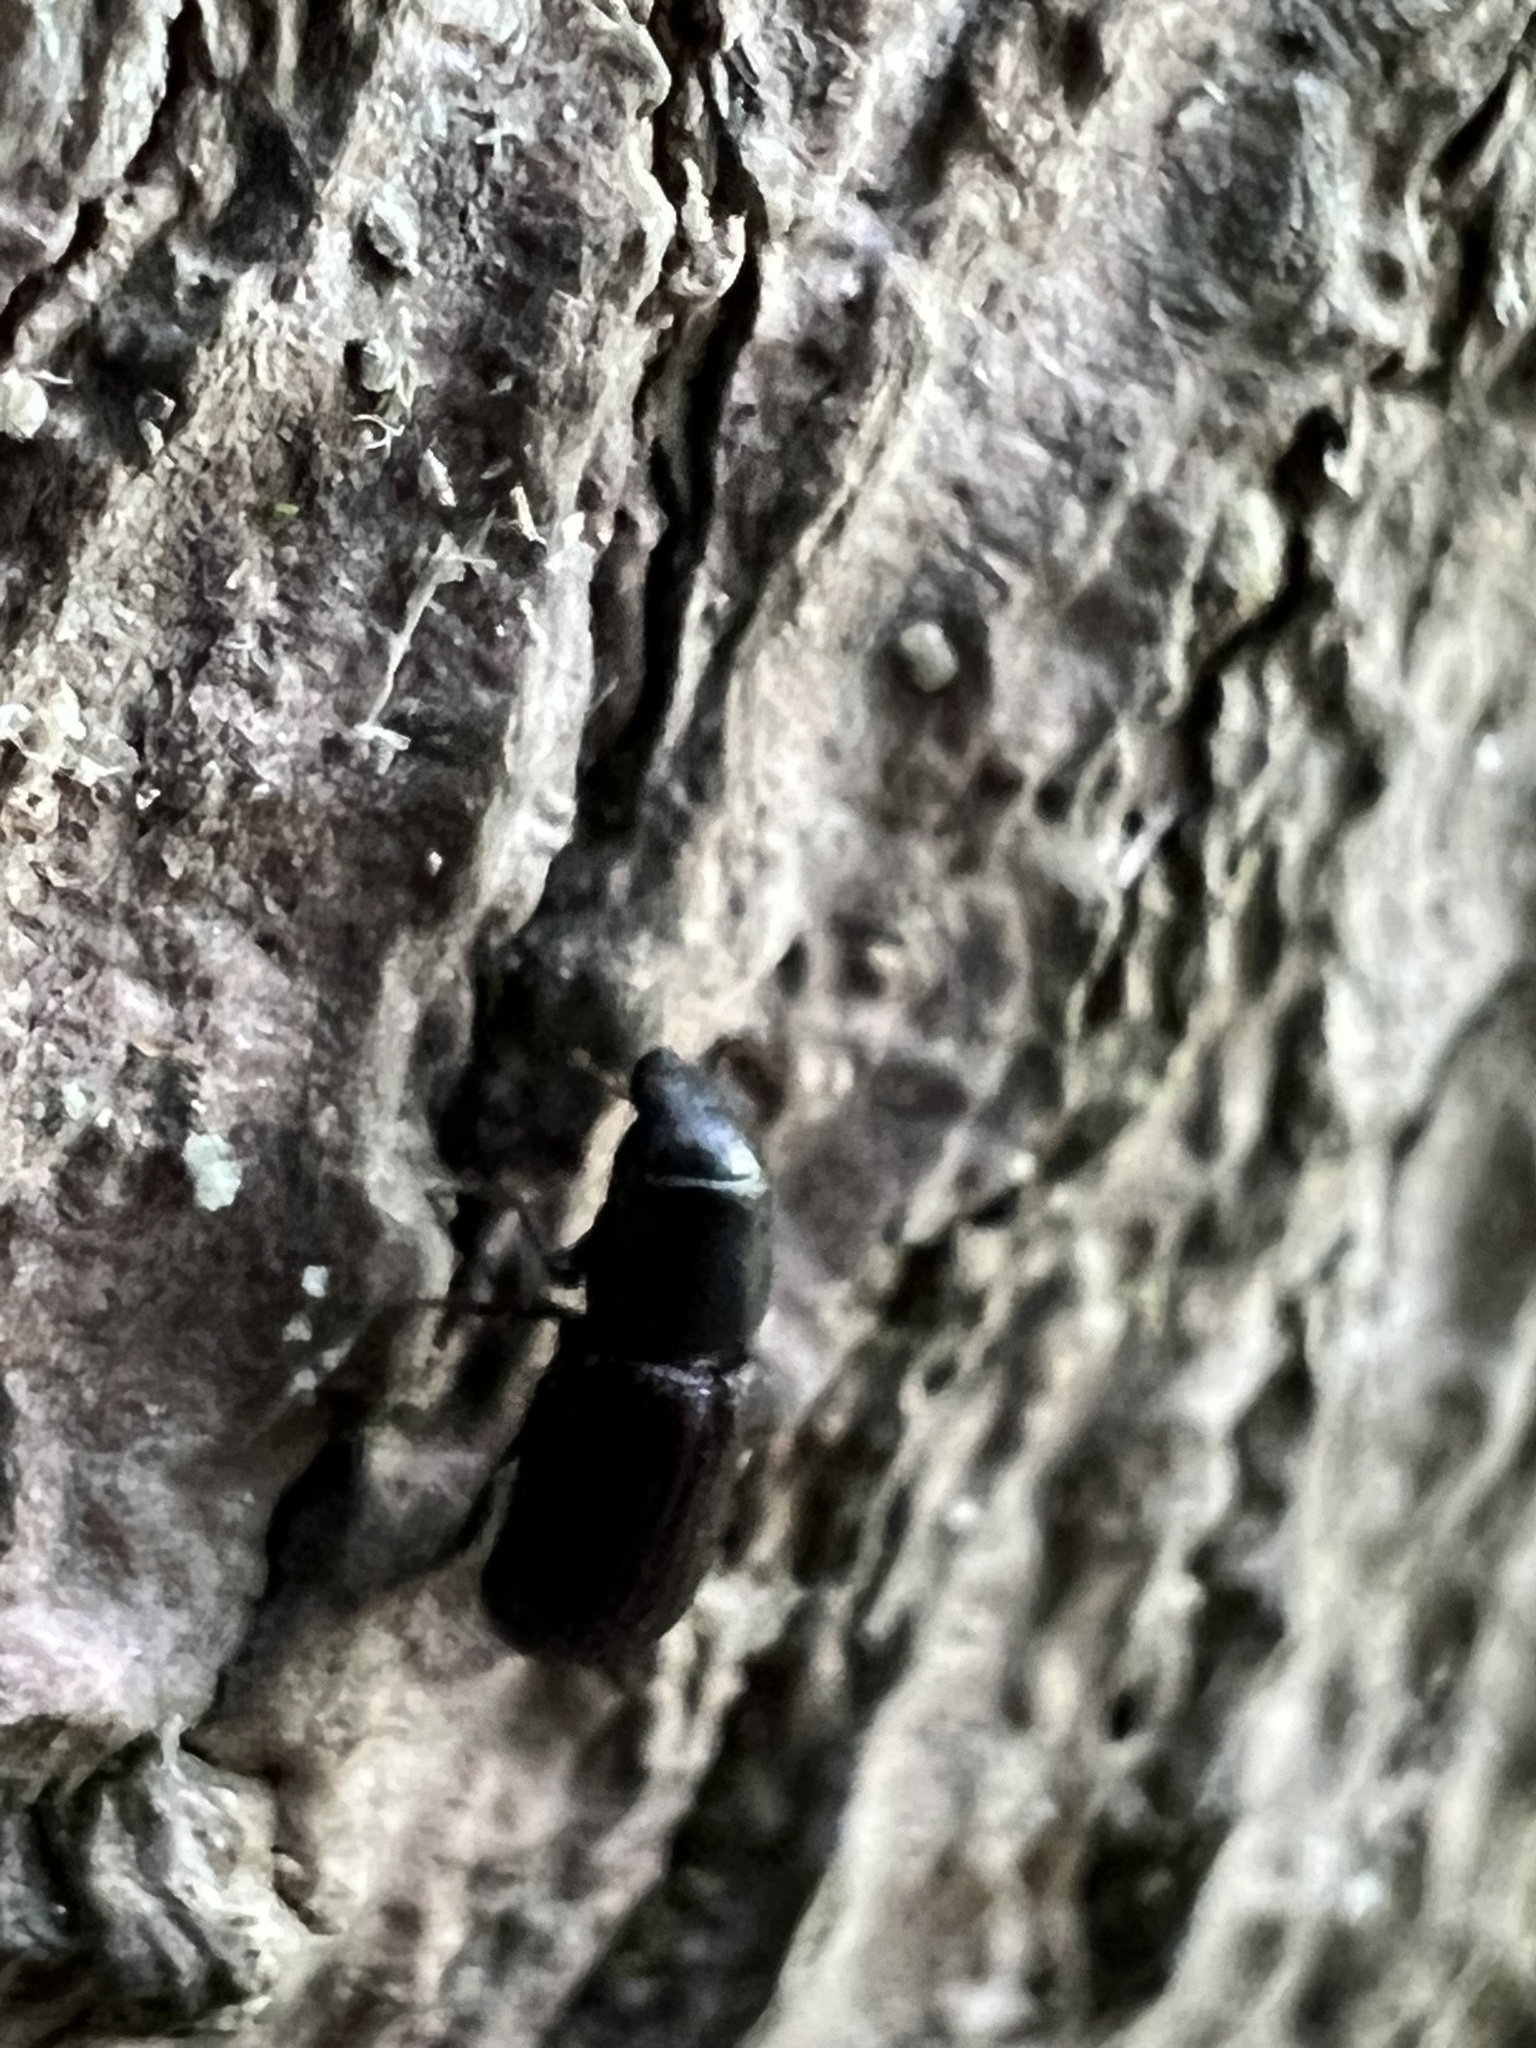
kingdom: Animalia
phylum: Arthropoda
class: Insecta
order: Coleoptera
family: Curculionidae
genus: Stenoscelis
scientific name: Stenoscelis brevis
